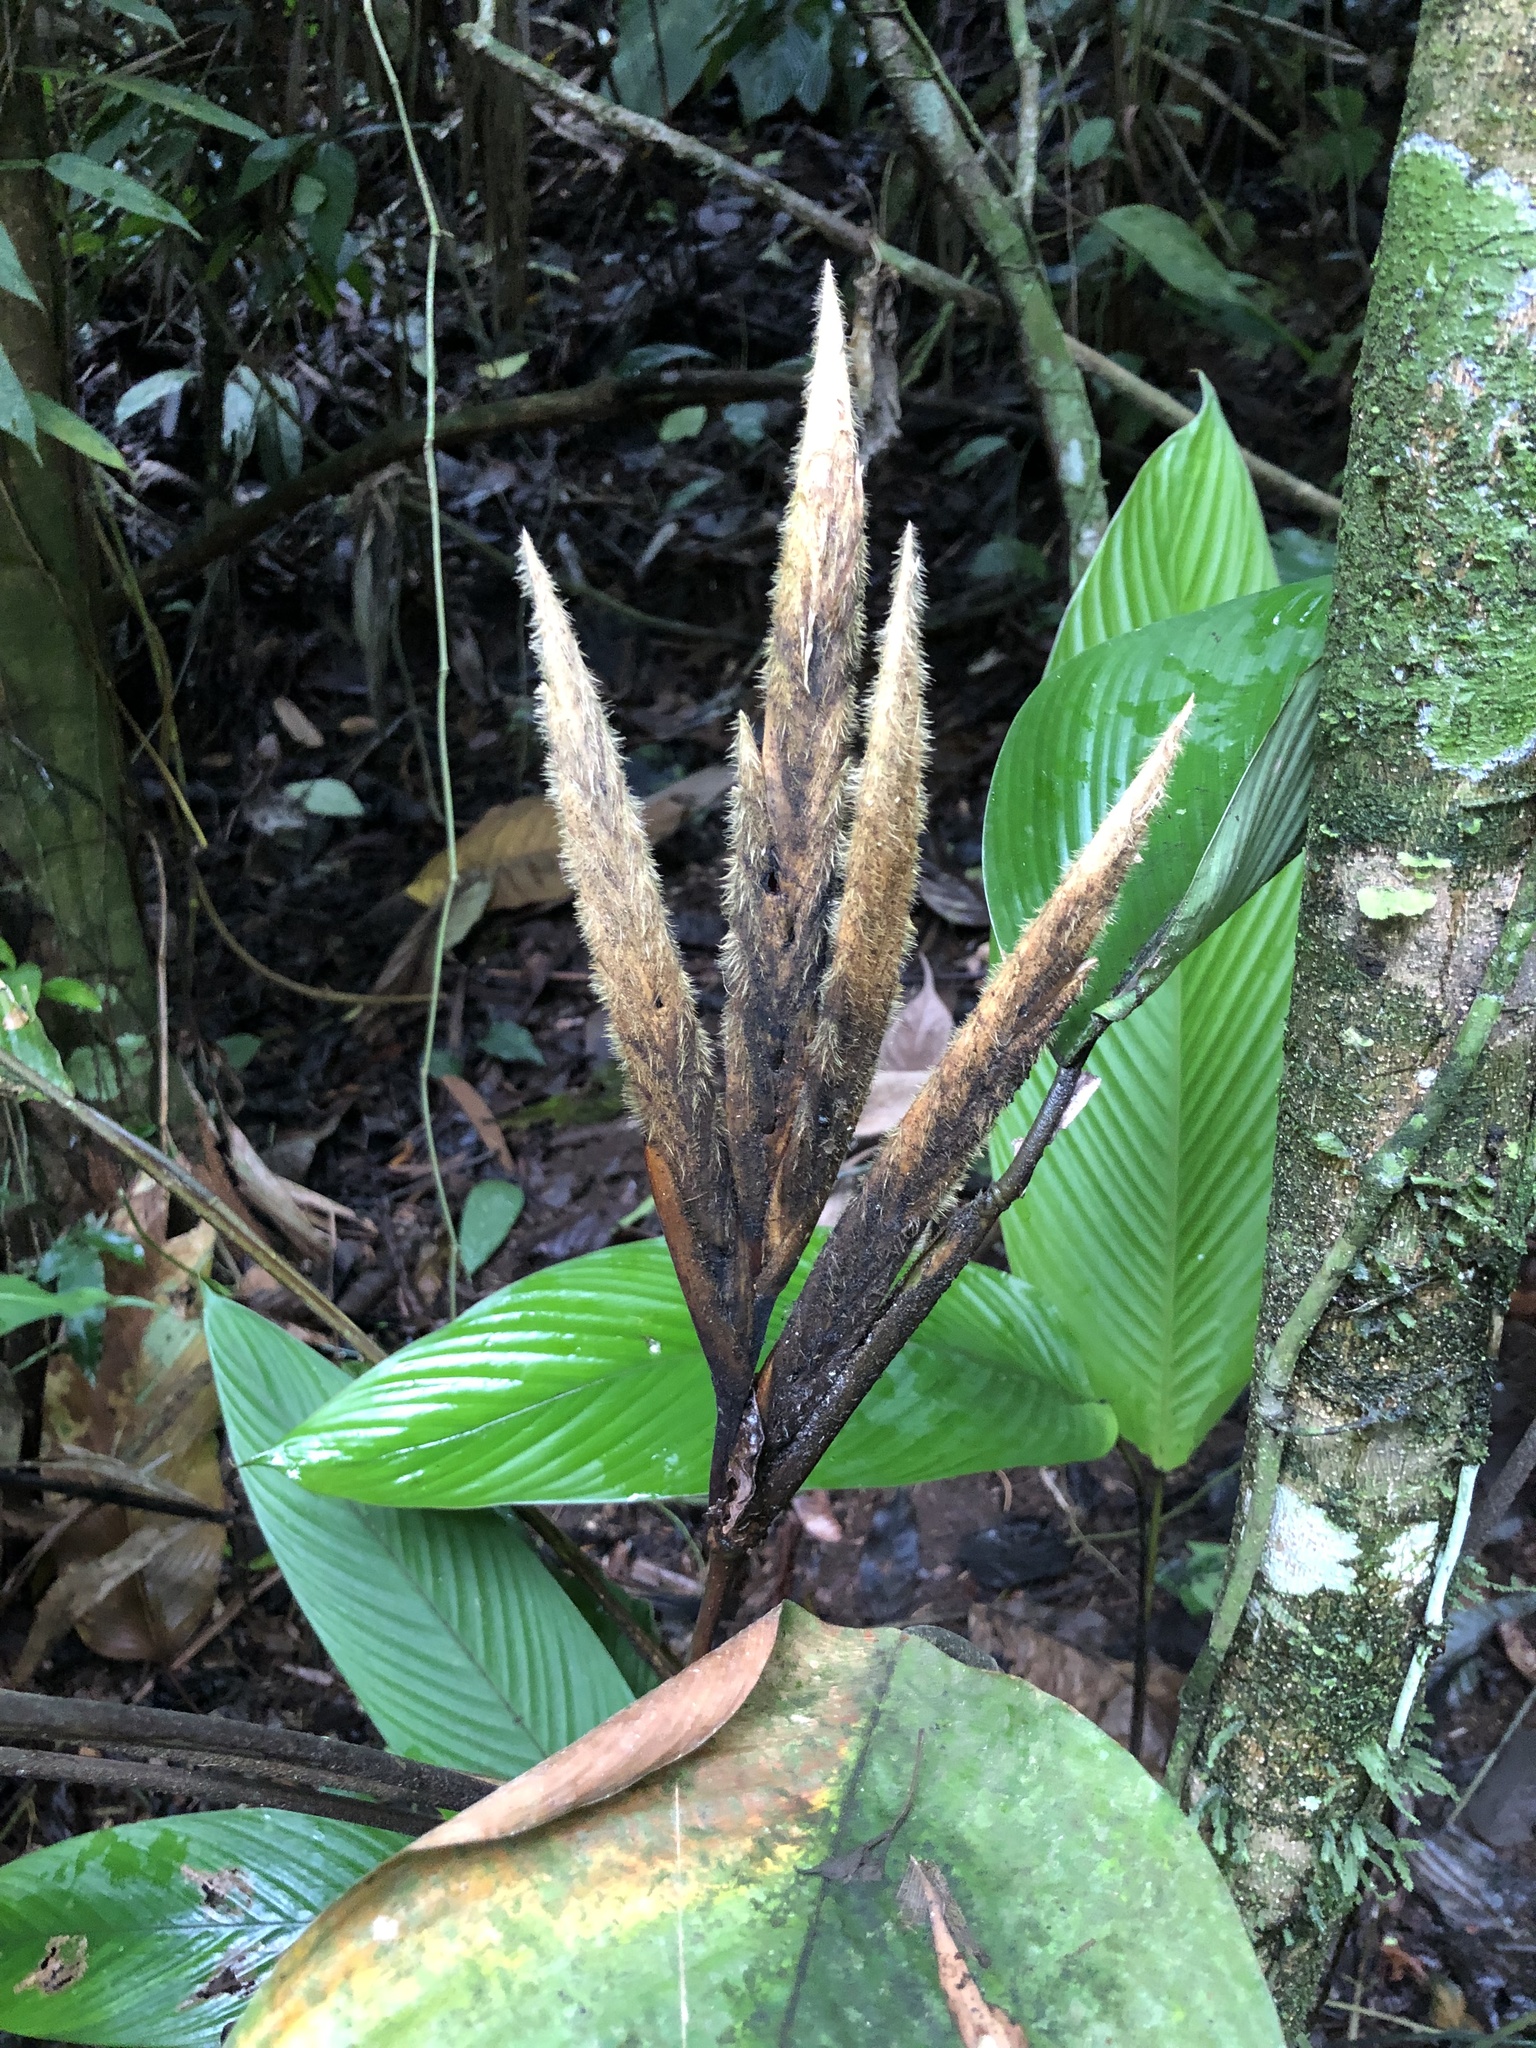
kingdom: Plantae
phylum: Tracheophyta
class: Liliopsida
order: Zingiberales
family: Marantaceae
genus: Pleiostachya
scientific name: Pleiostachya pruinosa
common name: Prayer plant
